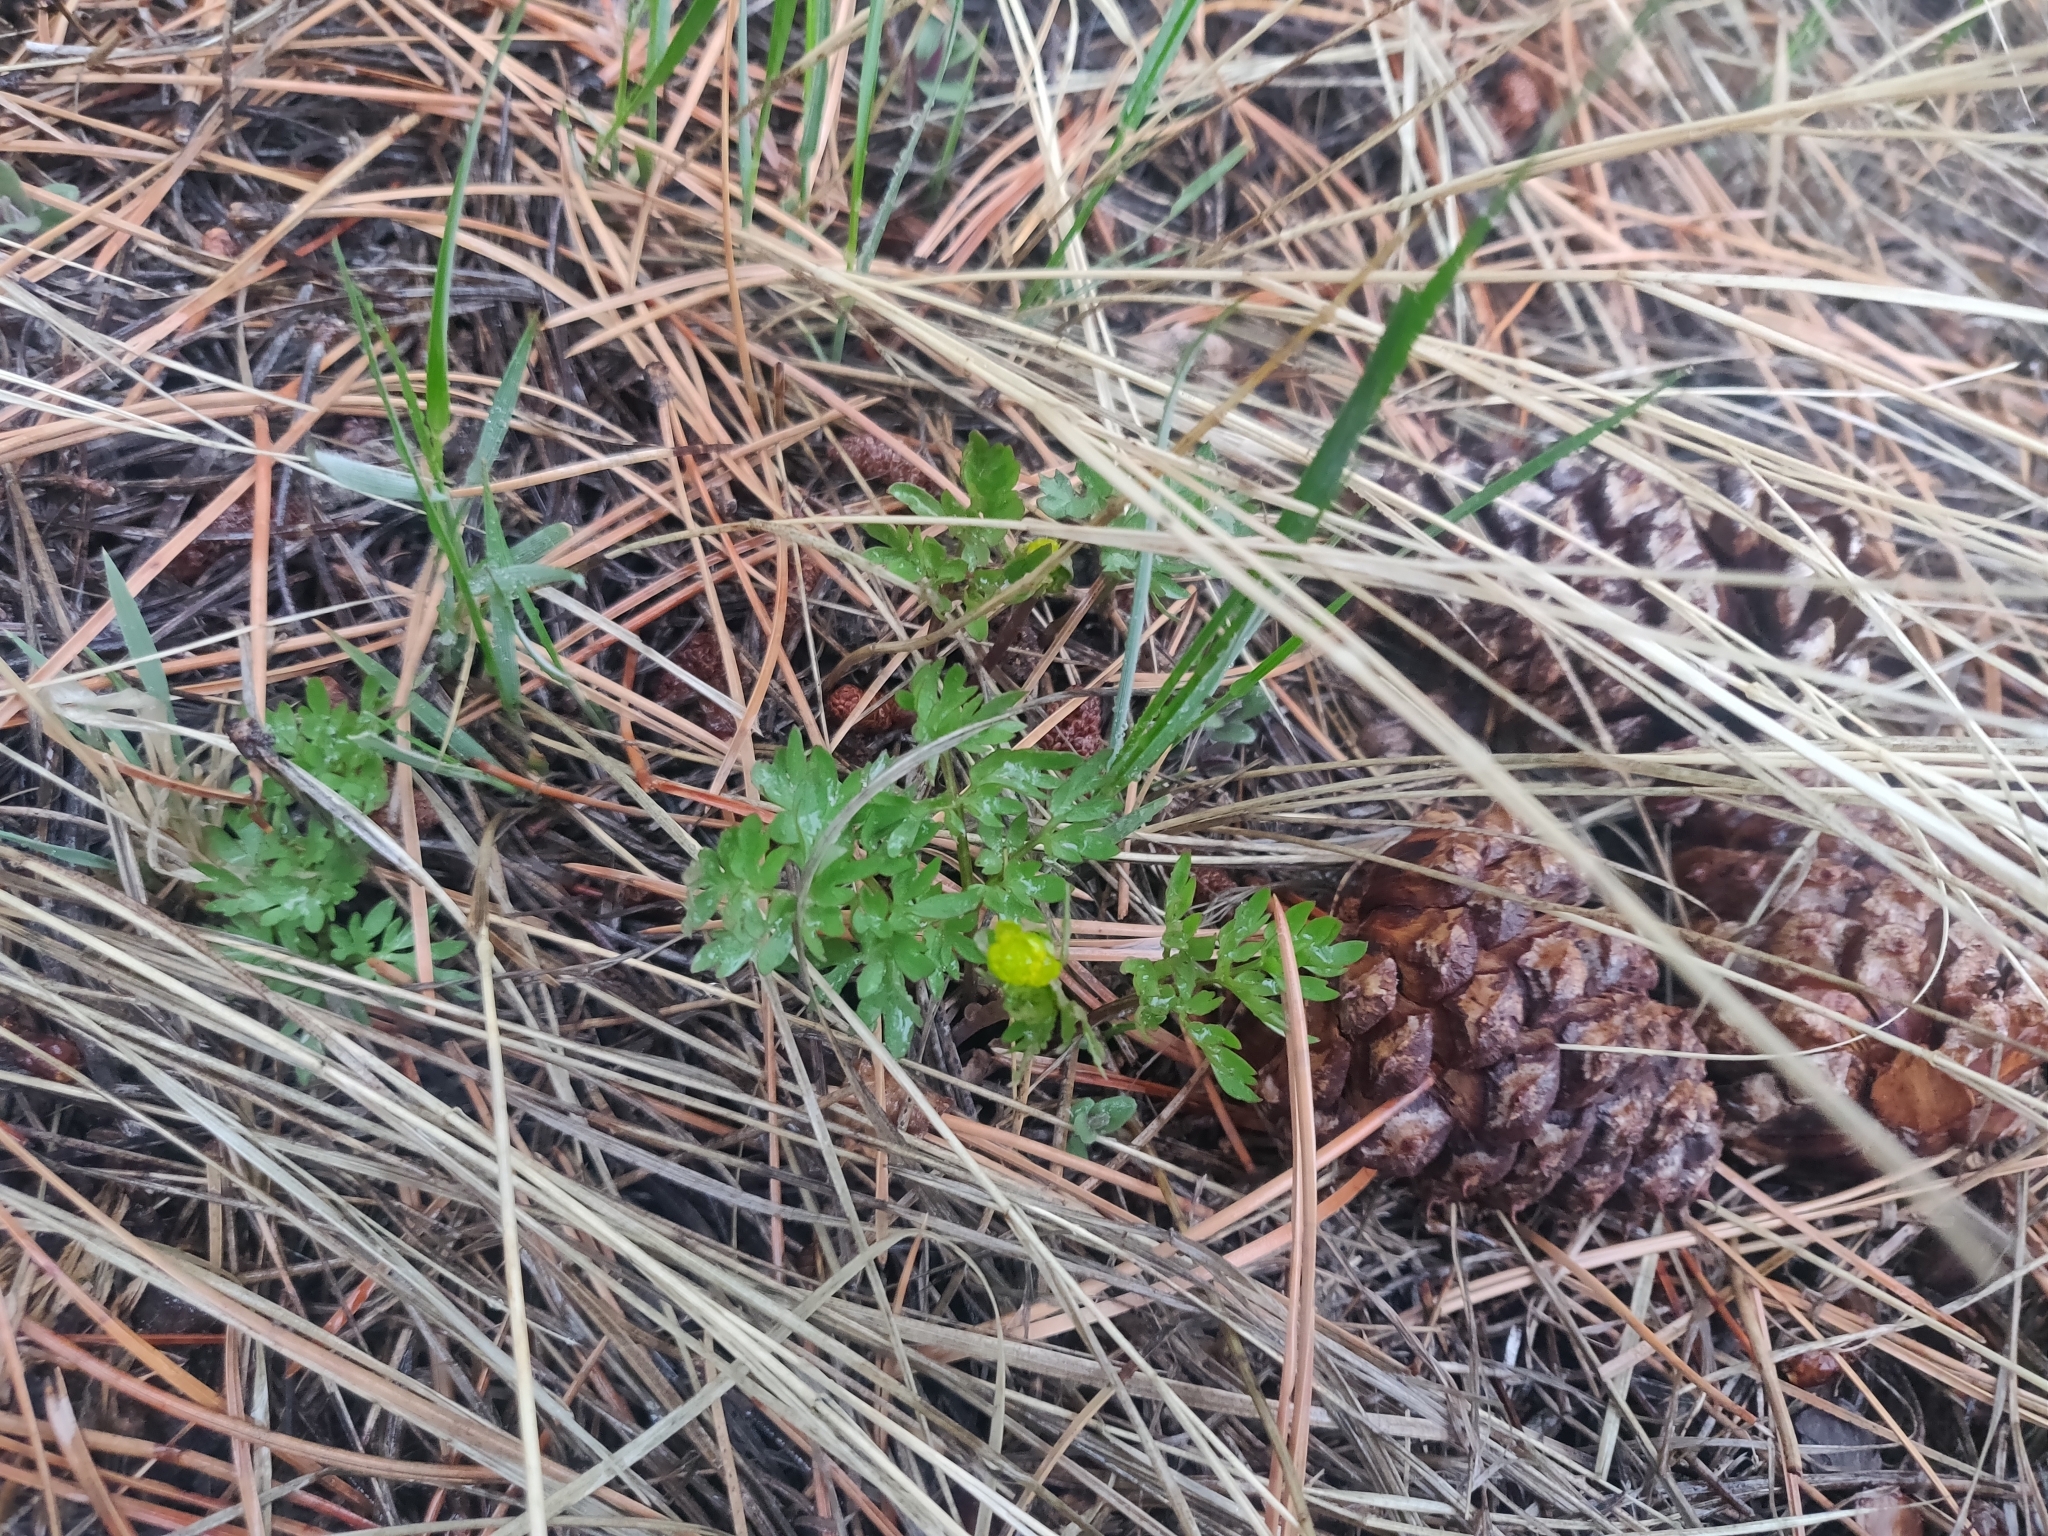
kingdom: Plantae
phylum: Tracheophyta
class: Magnoliopsida
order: Ranunculales
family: Ranunculaceae
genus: Cyrtorhyncha
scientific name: Cyrtorhyncha ranunculina
